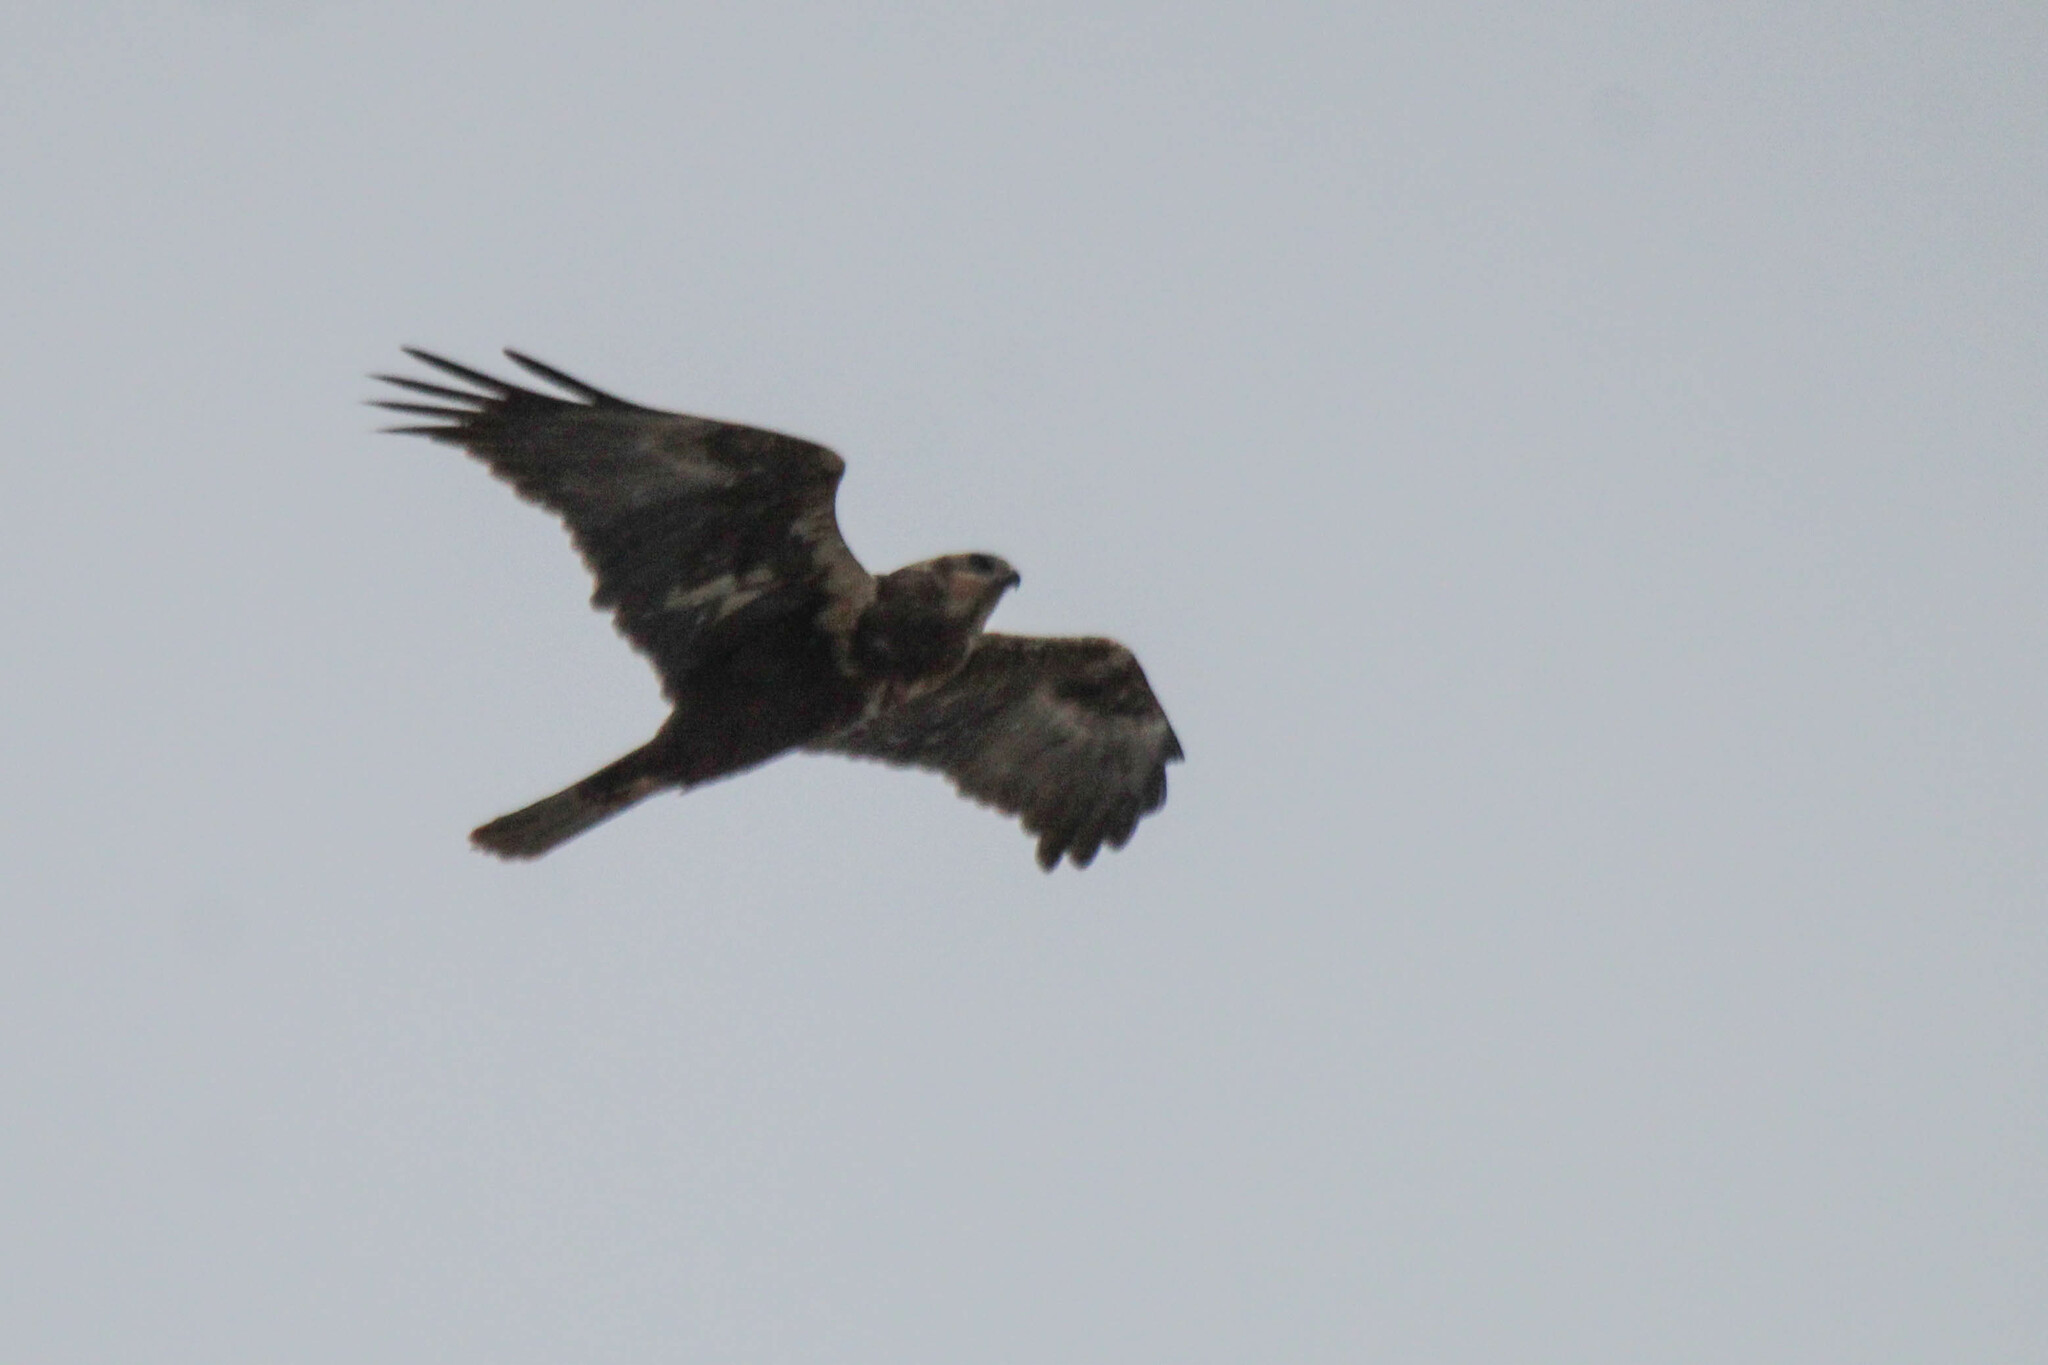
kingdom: Animalia
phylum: Chordata
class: Aves
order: Accipitriformes
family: Accipitridae
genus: Circus
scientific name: Circus aeruginosus
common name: Western marsh harrier
